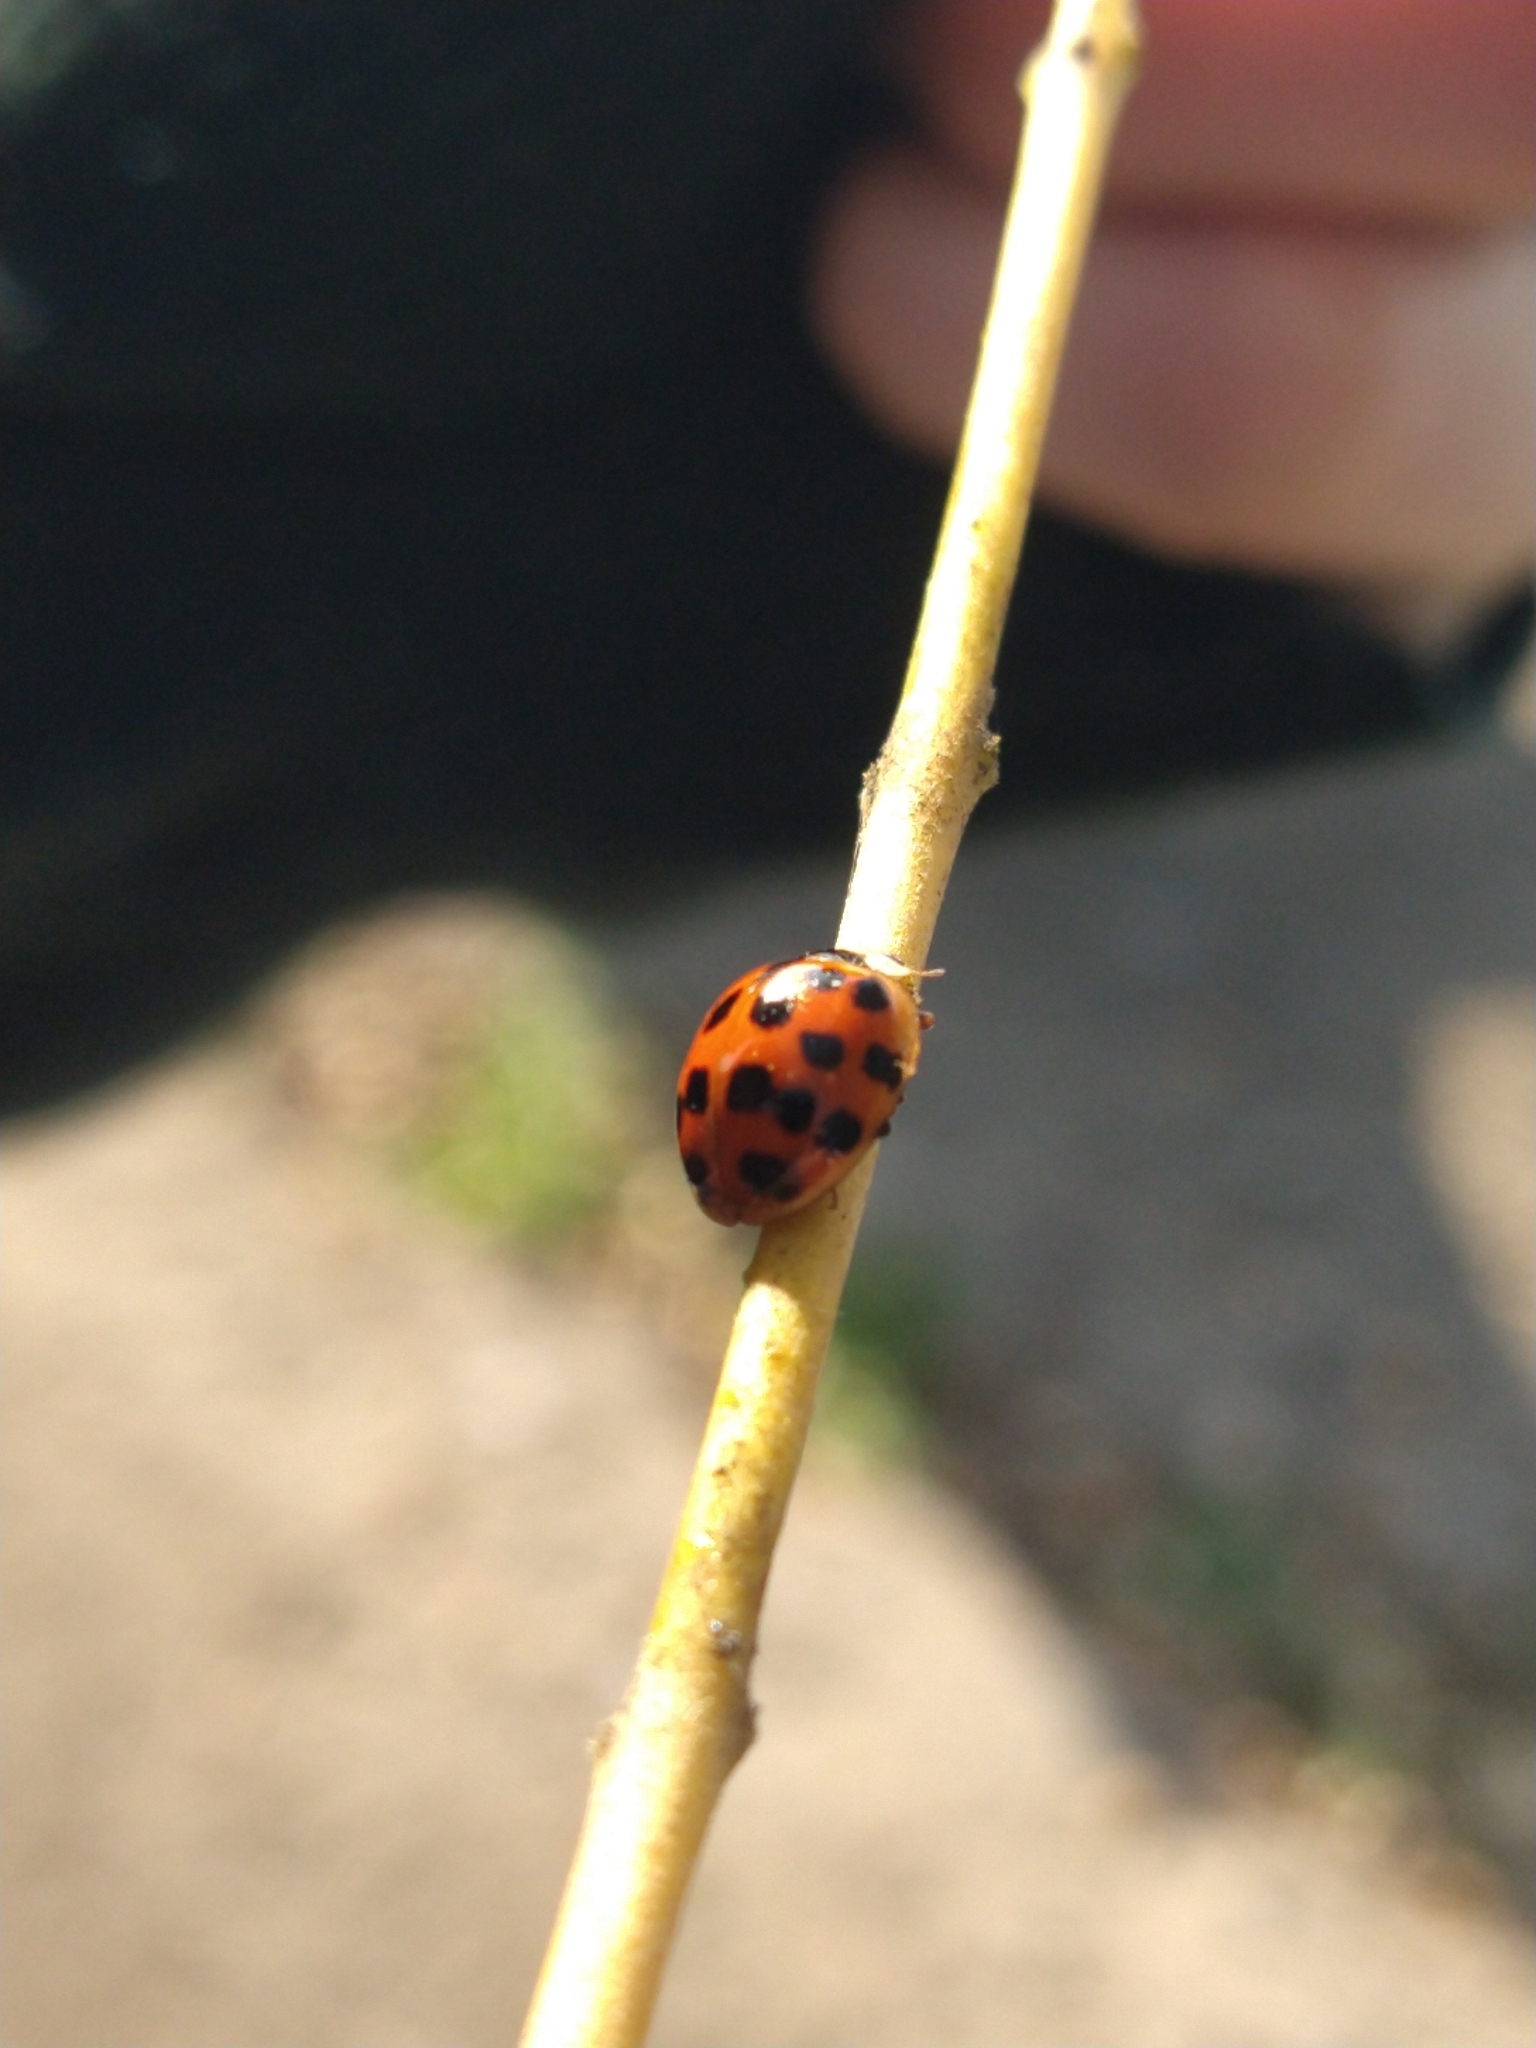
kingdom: Animalia
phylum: Arthropoda
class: Insecta
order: Coleoptera
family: Coccinellidae
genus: Harmonia
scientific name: Harmonia axyridis
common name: Harlequin ladybird
